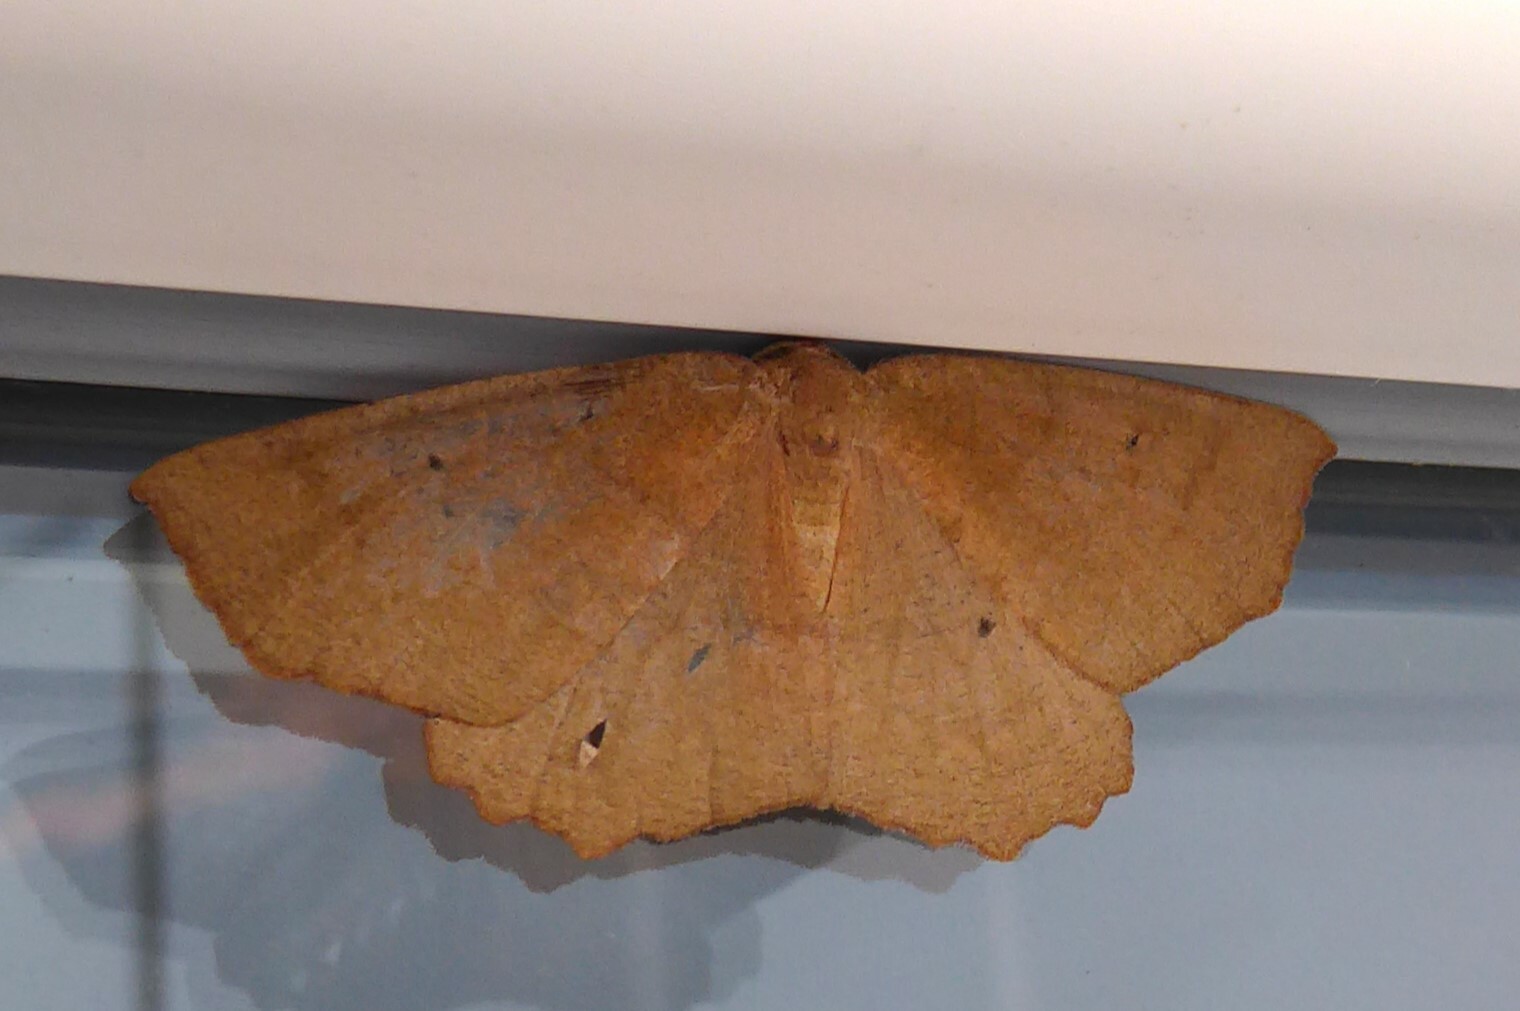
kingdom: Animalia
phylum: Arthropoda
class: Insecta
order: Lepidoptera
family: Geometridae
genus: Xyridacma
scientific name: Xyridacma ustaria
